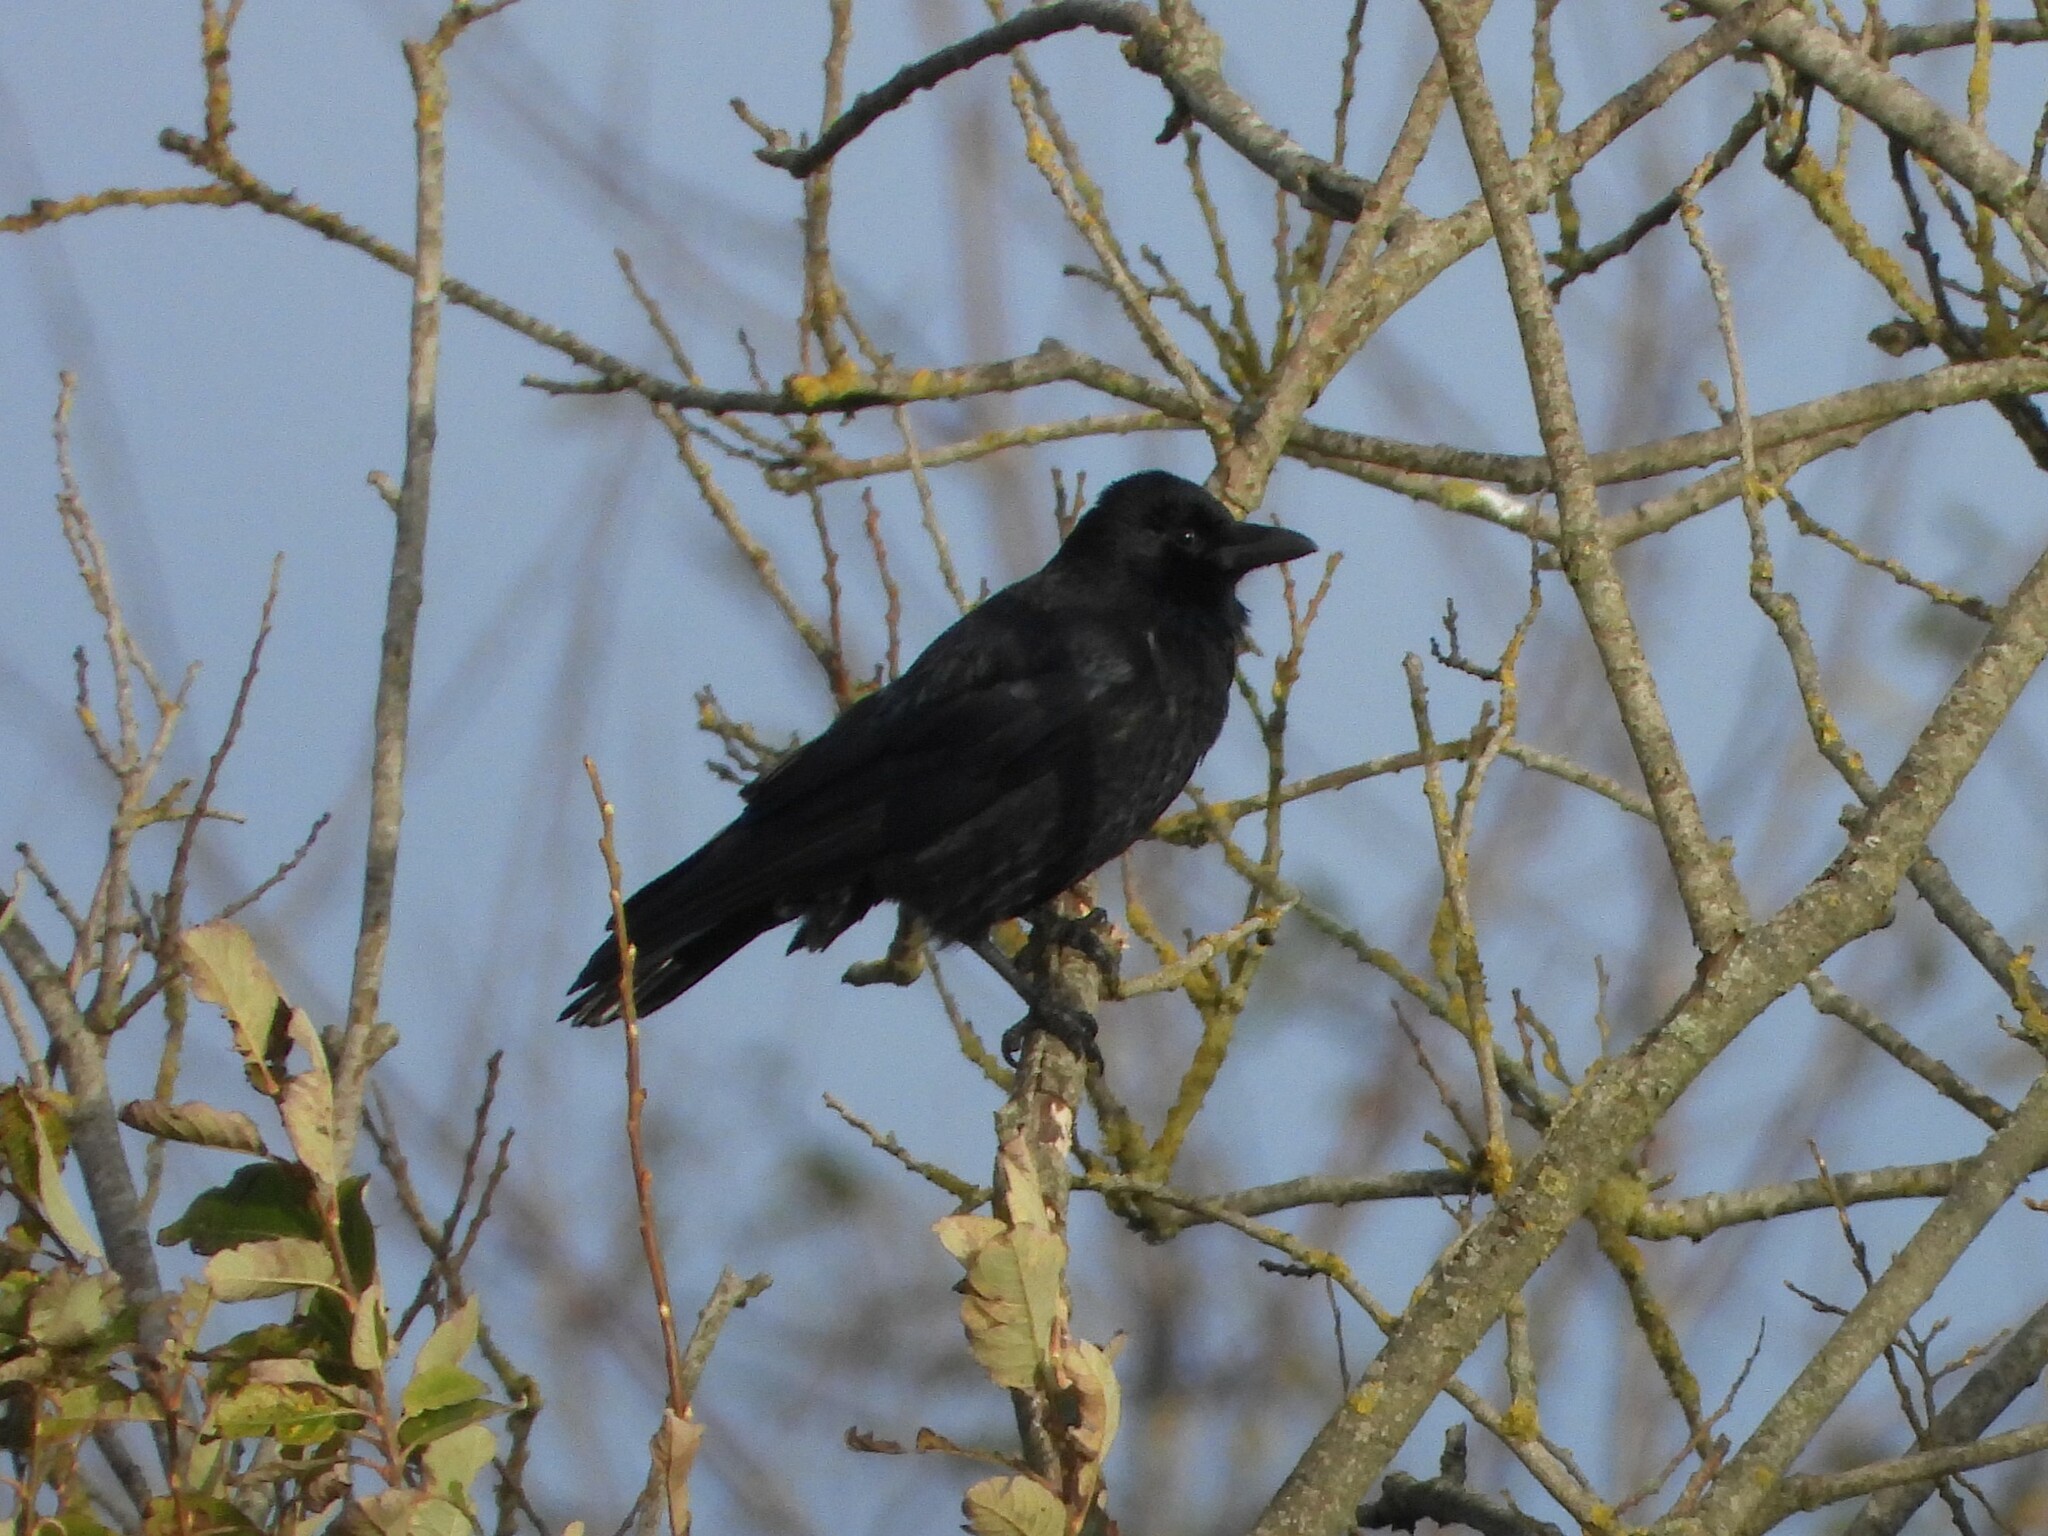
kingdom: Animalia
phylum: Chordata
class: Aves
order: Passeriformes
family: Corvidae
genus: Corvus
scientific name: Corvus corone
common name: Carrion crow
